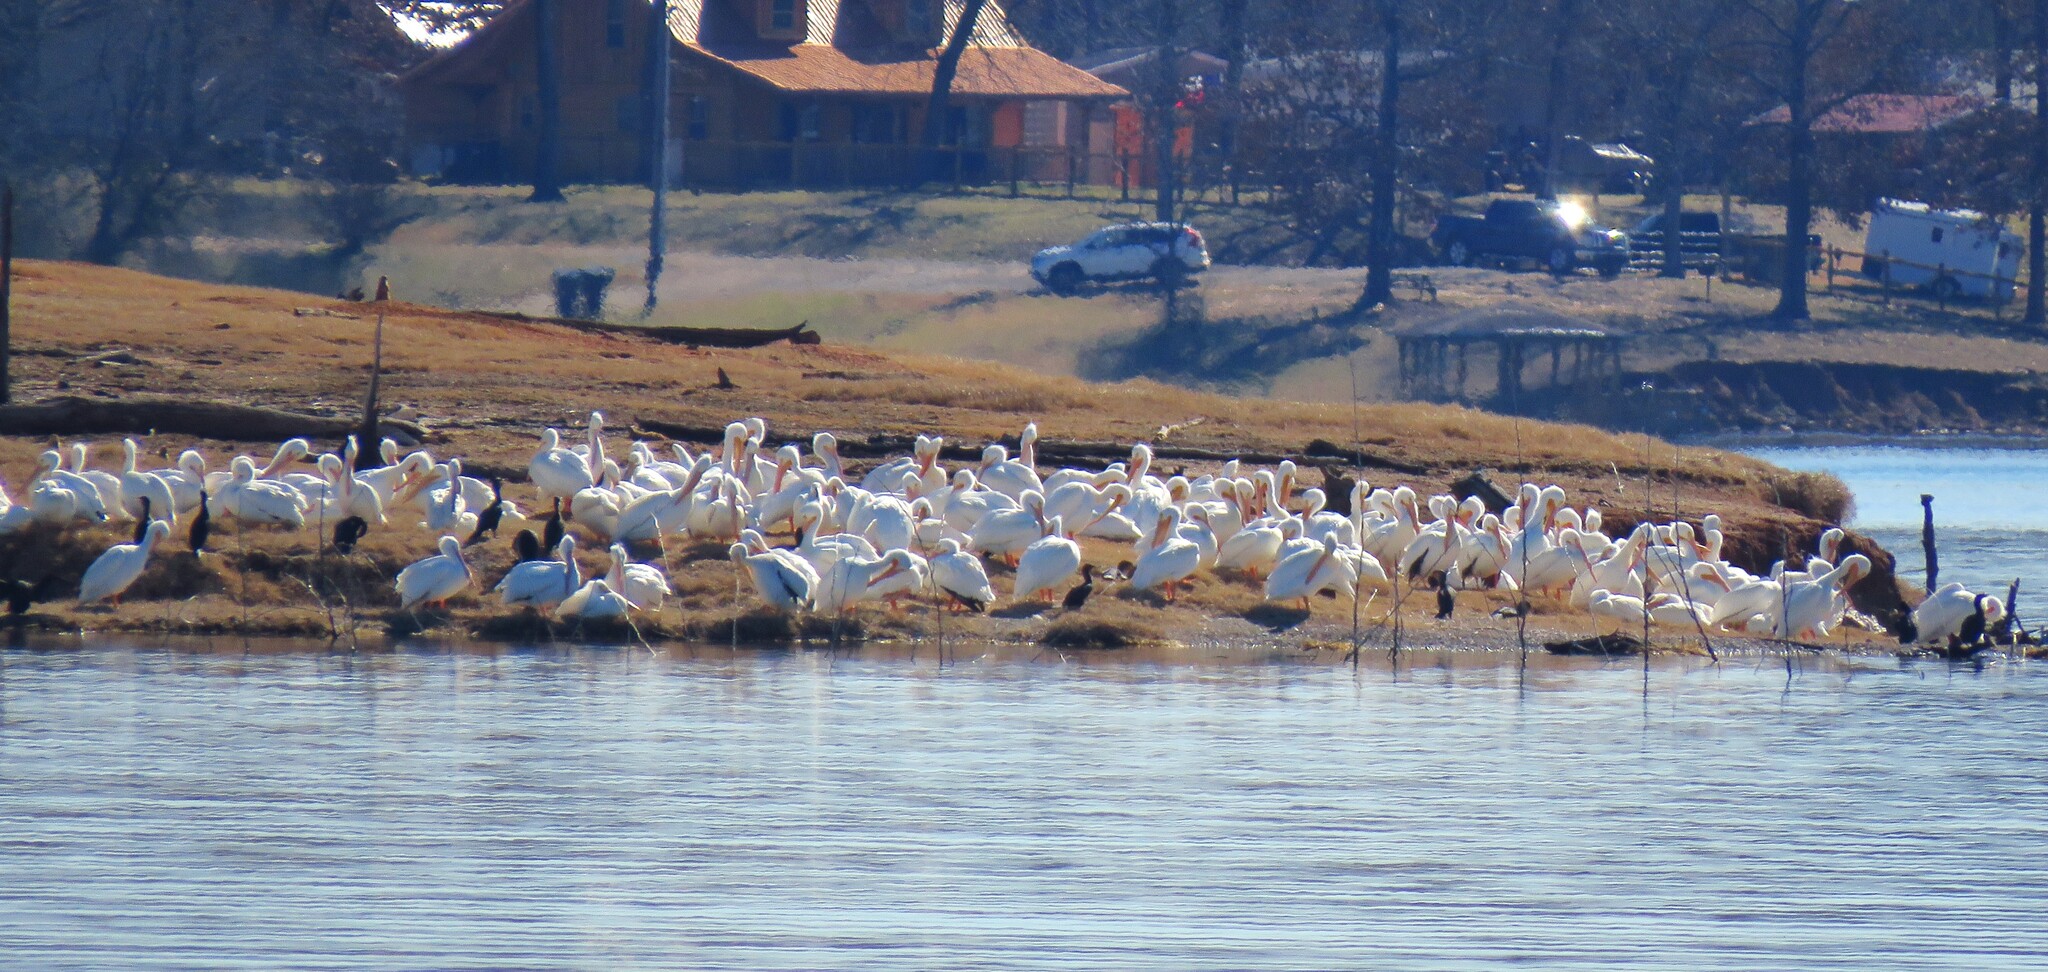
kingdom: Animalia
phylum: Chordata
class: Aves
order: Pelecaniformes
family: Pelecanidae
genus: Pelecanus
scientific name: Pelecanus erythrorhynchos
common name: American white pelican
